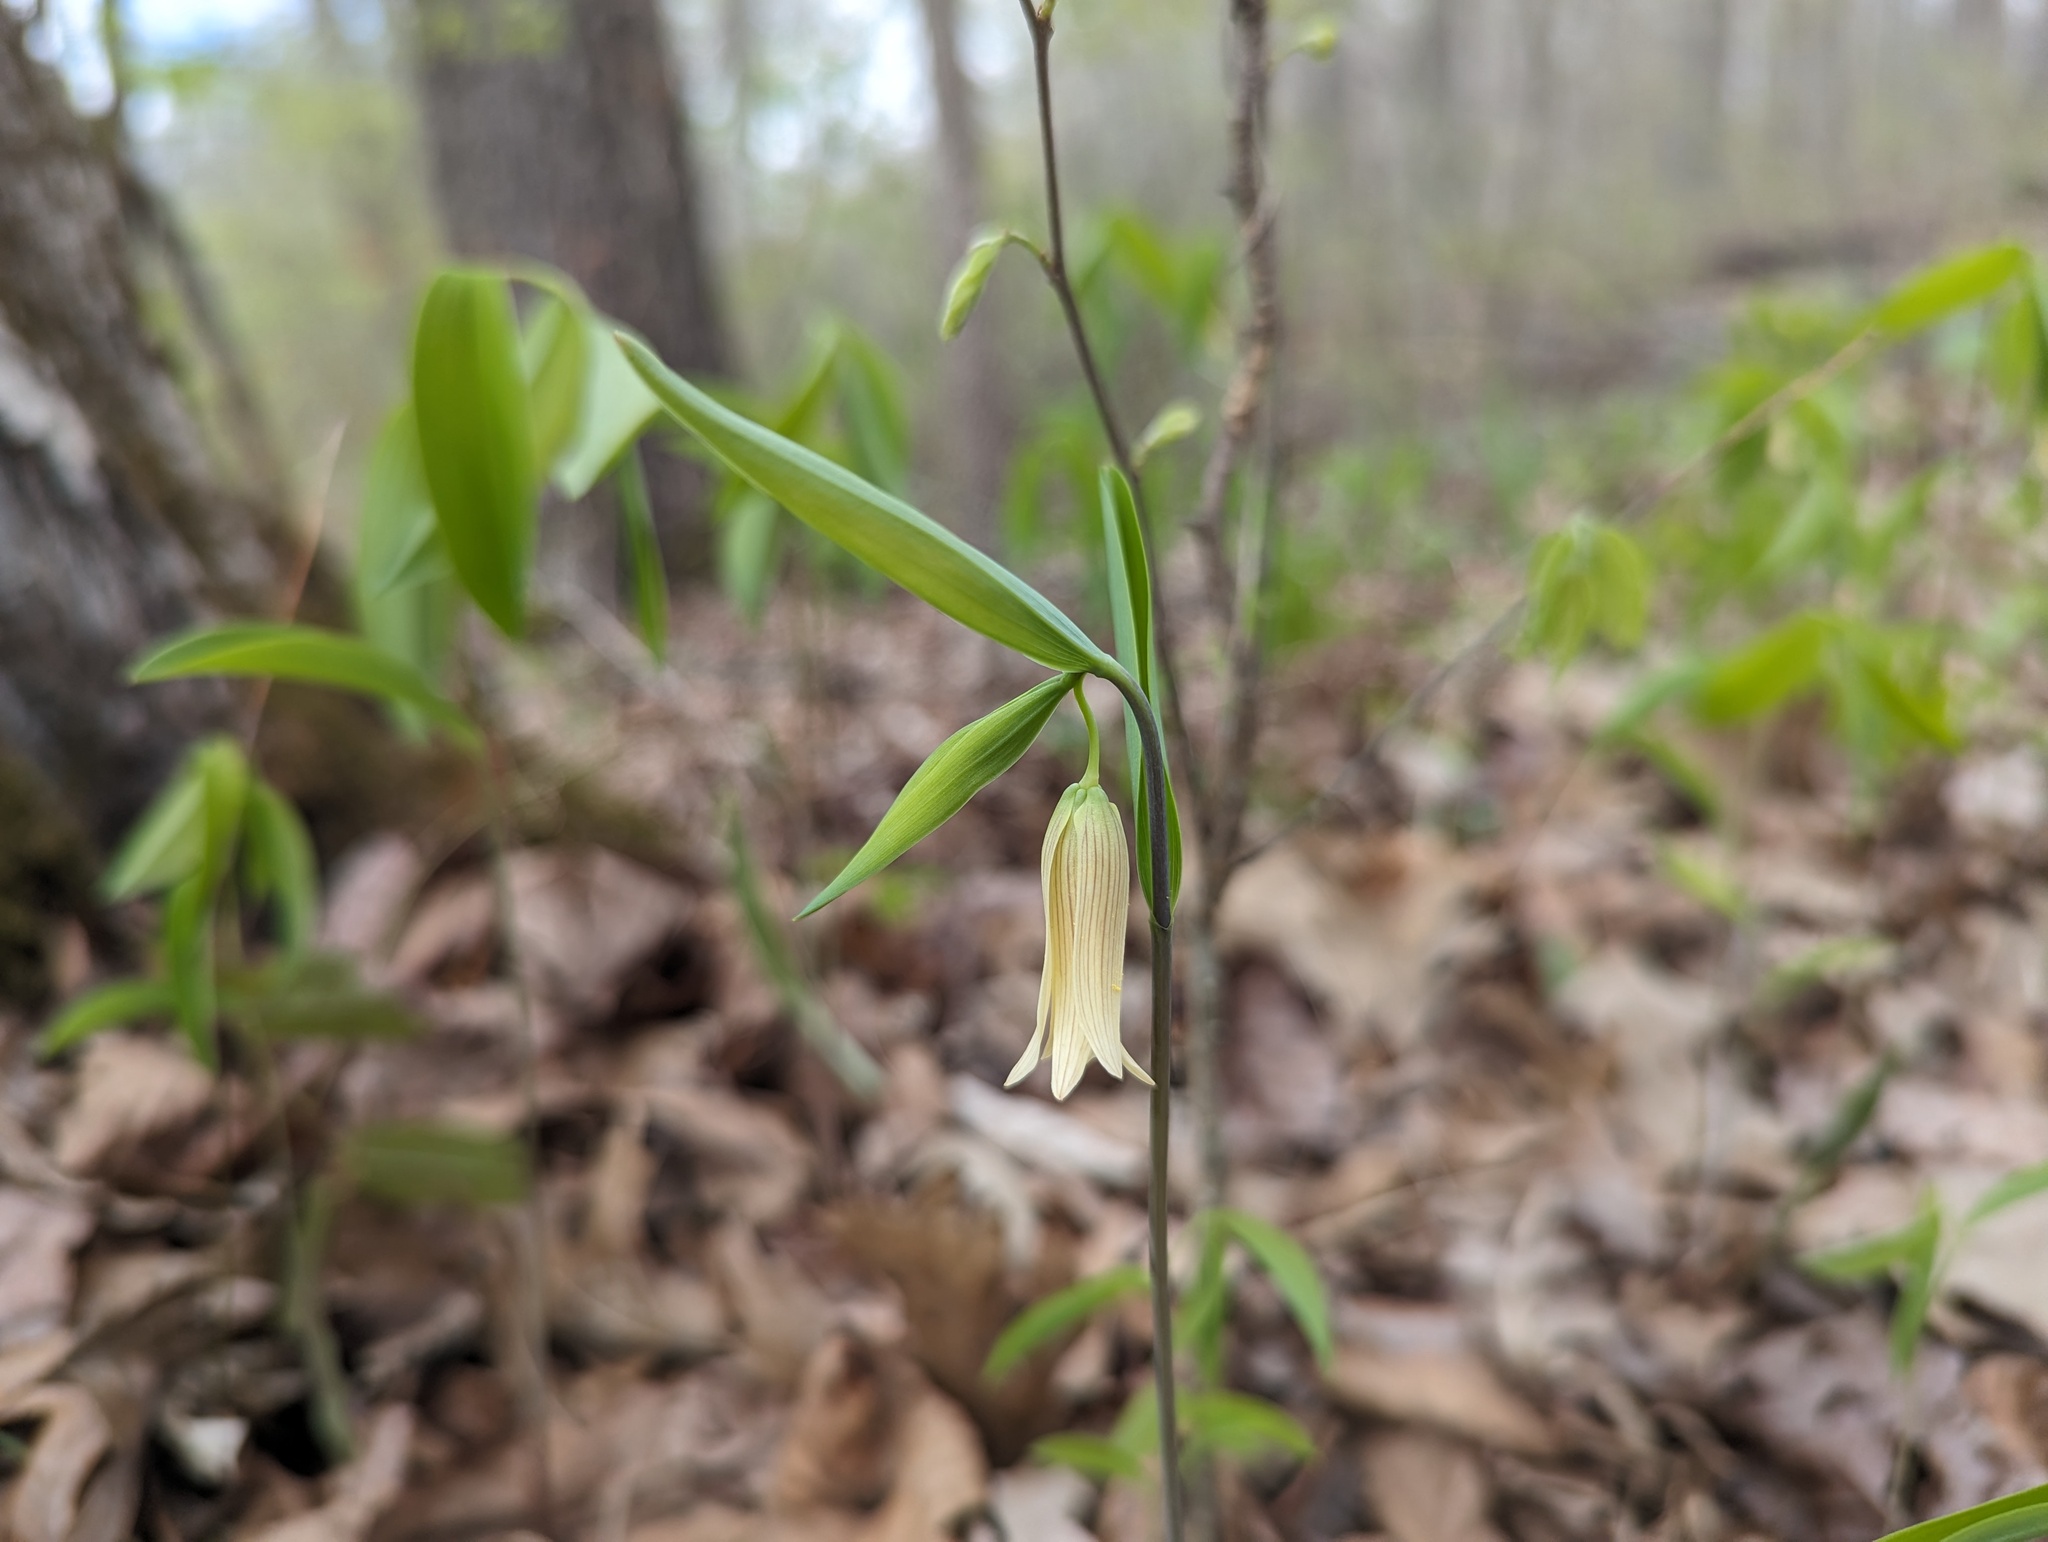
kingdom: Plantae
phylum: Tracheophyta
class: Liliopsida
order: Liliales
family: Colchicaceae
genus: Uvularia
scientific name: Uvularia sessilifolia
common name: Straw-lily
